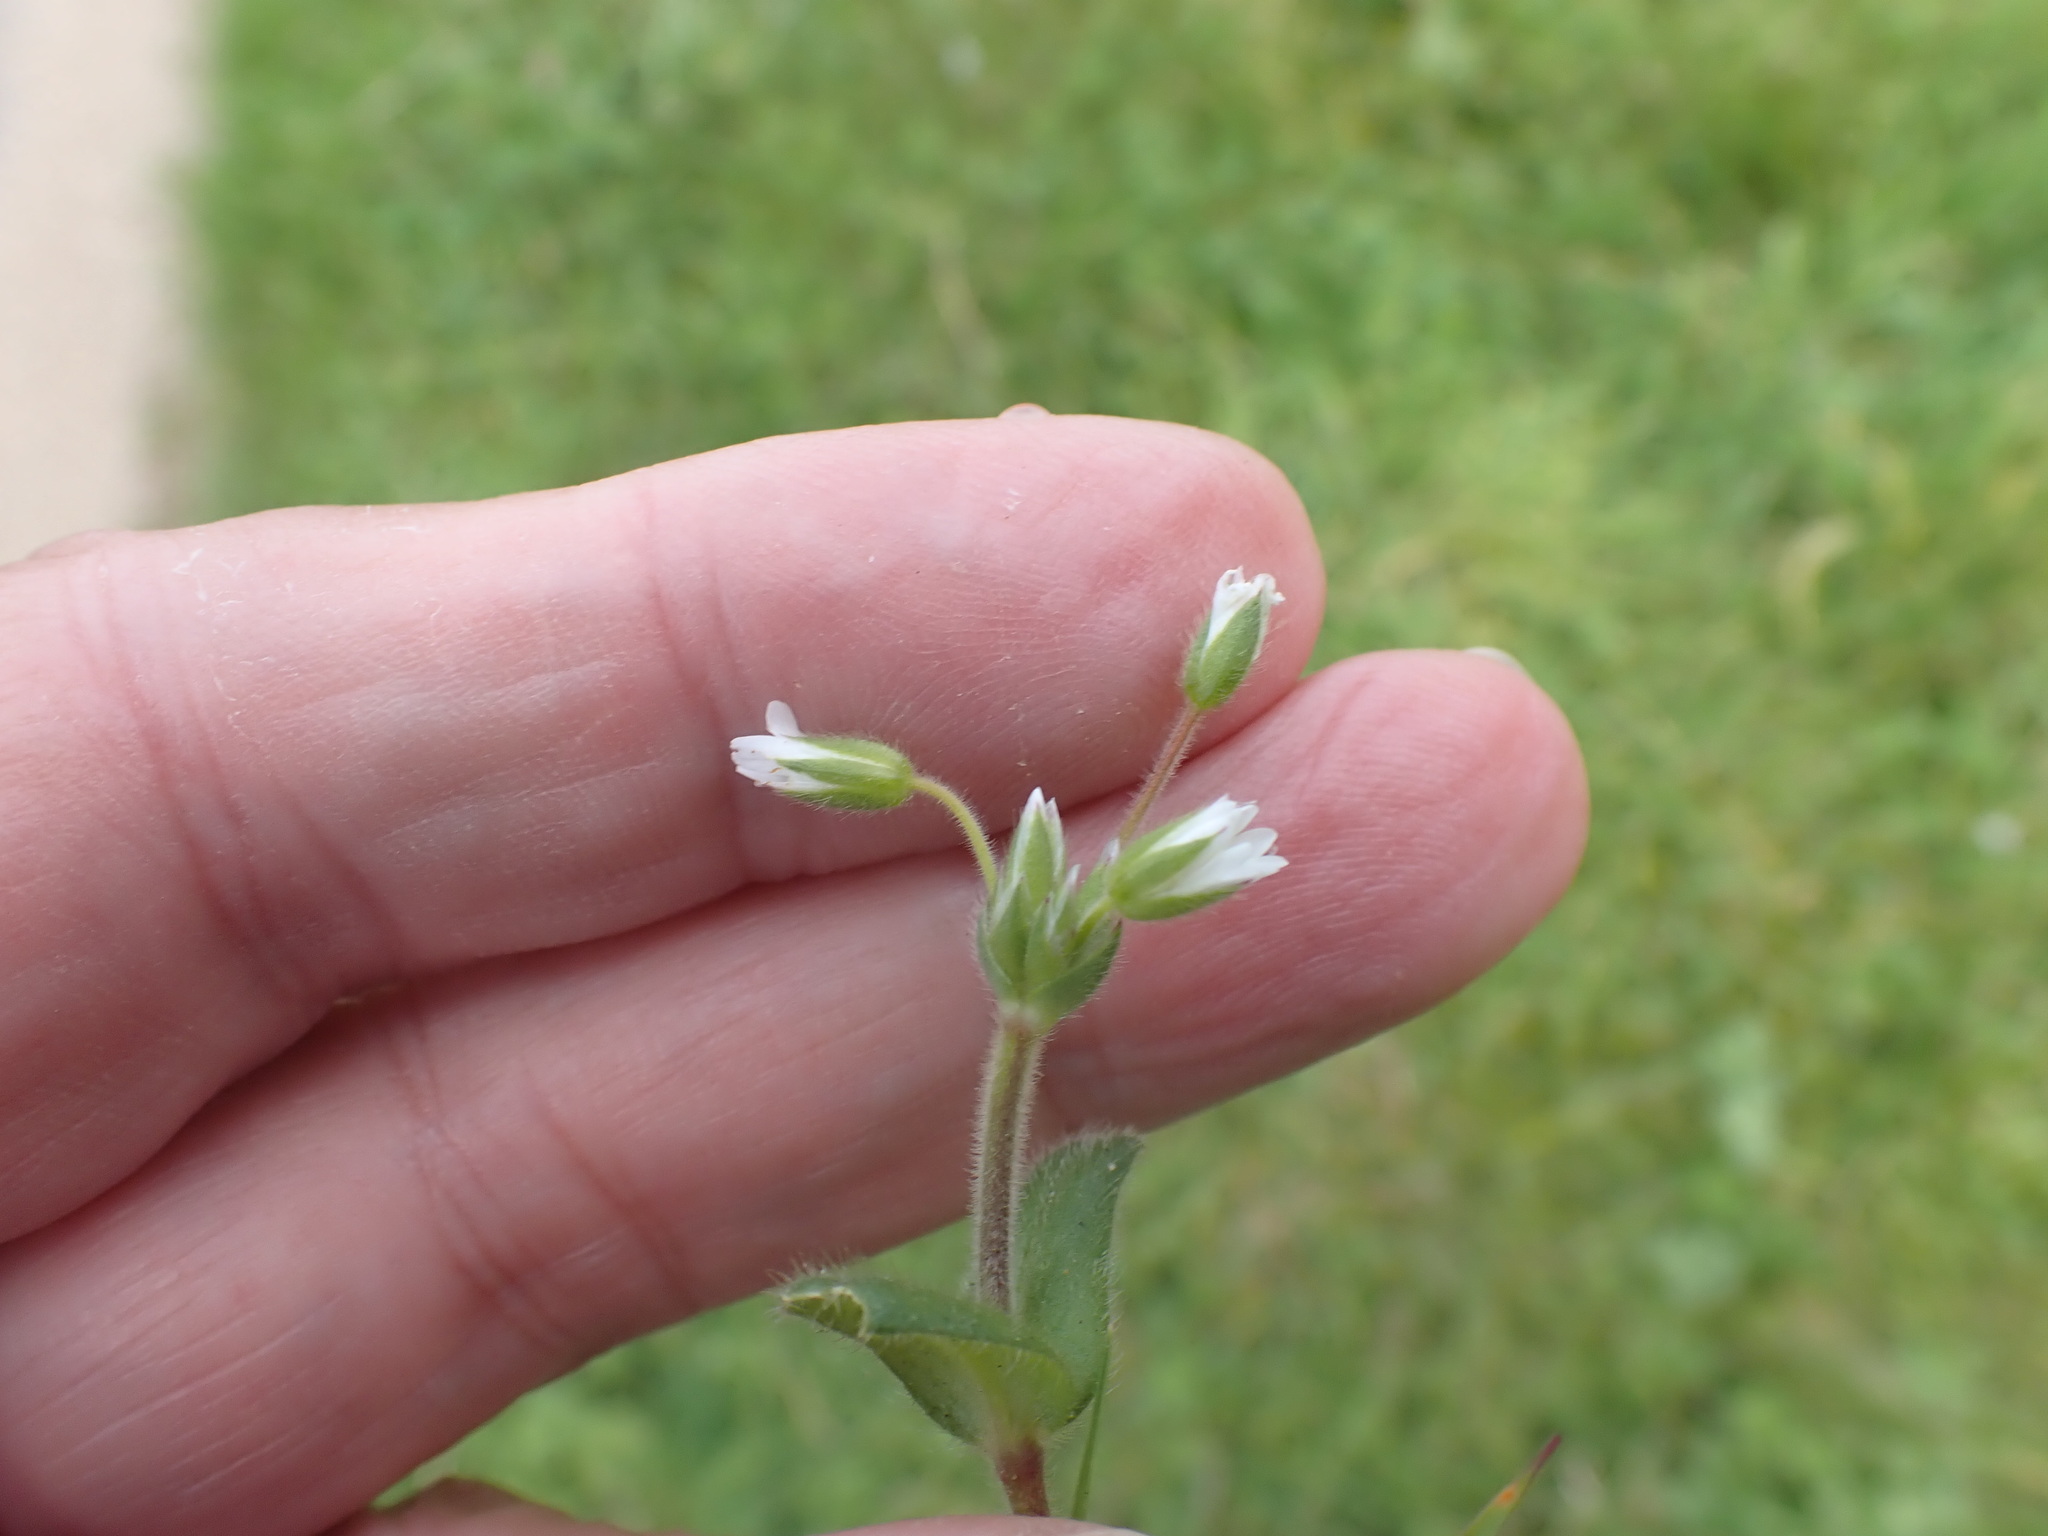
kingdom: Plantae
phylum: Tracheophyta
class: Magnoliopsida
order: Caryophyllales
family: Caryophyllaceae
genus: Cerastium
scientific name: Cerastium fontanum
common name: Common mouse-ear
